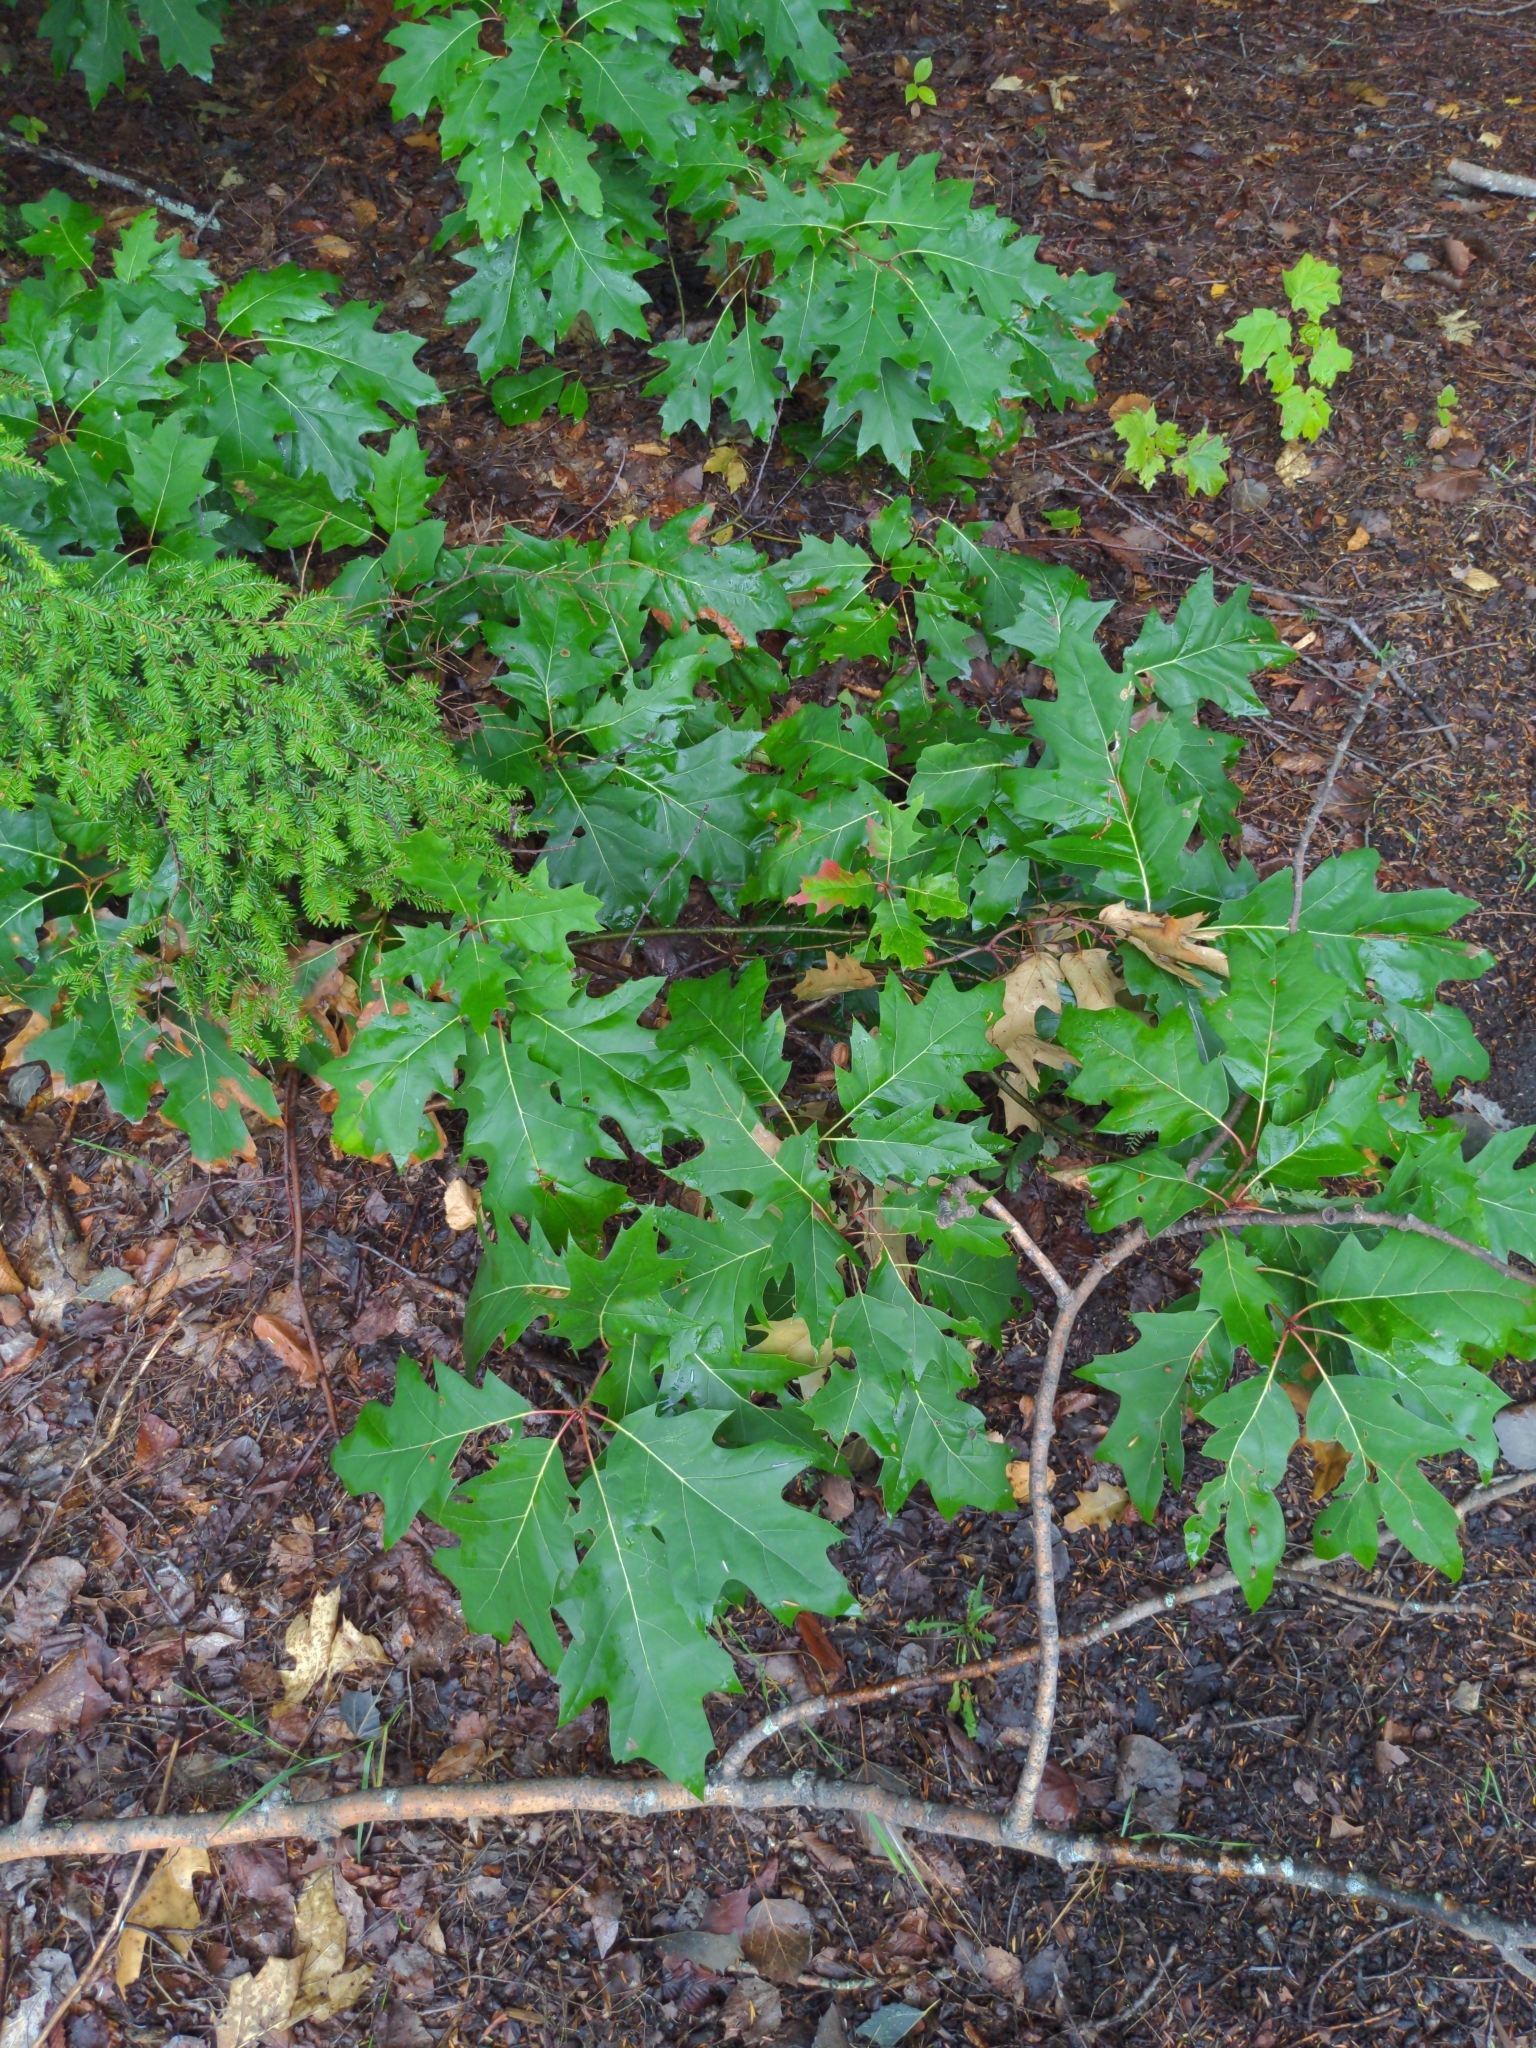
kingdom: Plantae
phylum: Tracheophyta
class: Magnoliopsida
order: Fagales
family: Fagaceae
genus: Quercus
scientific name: Quercus rubra
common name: Red oak
